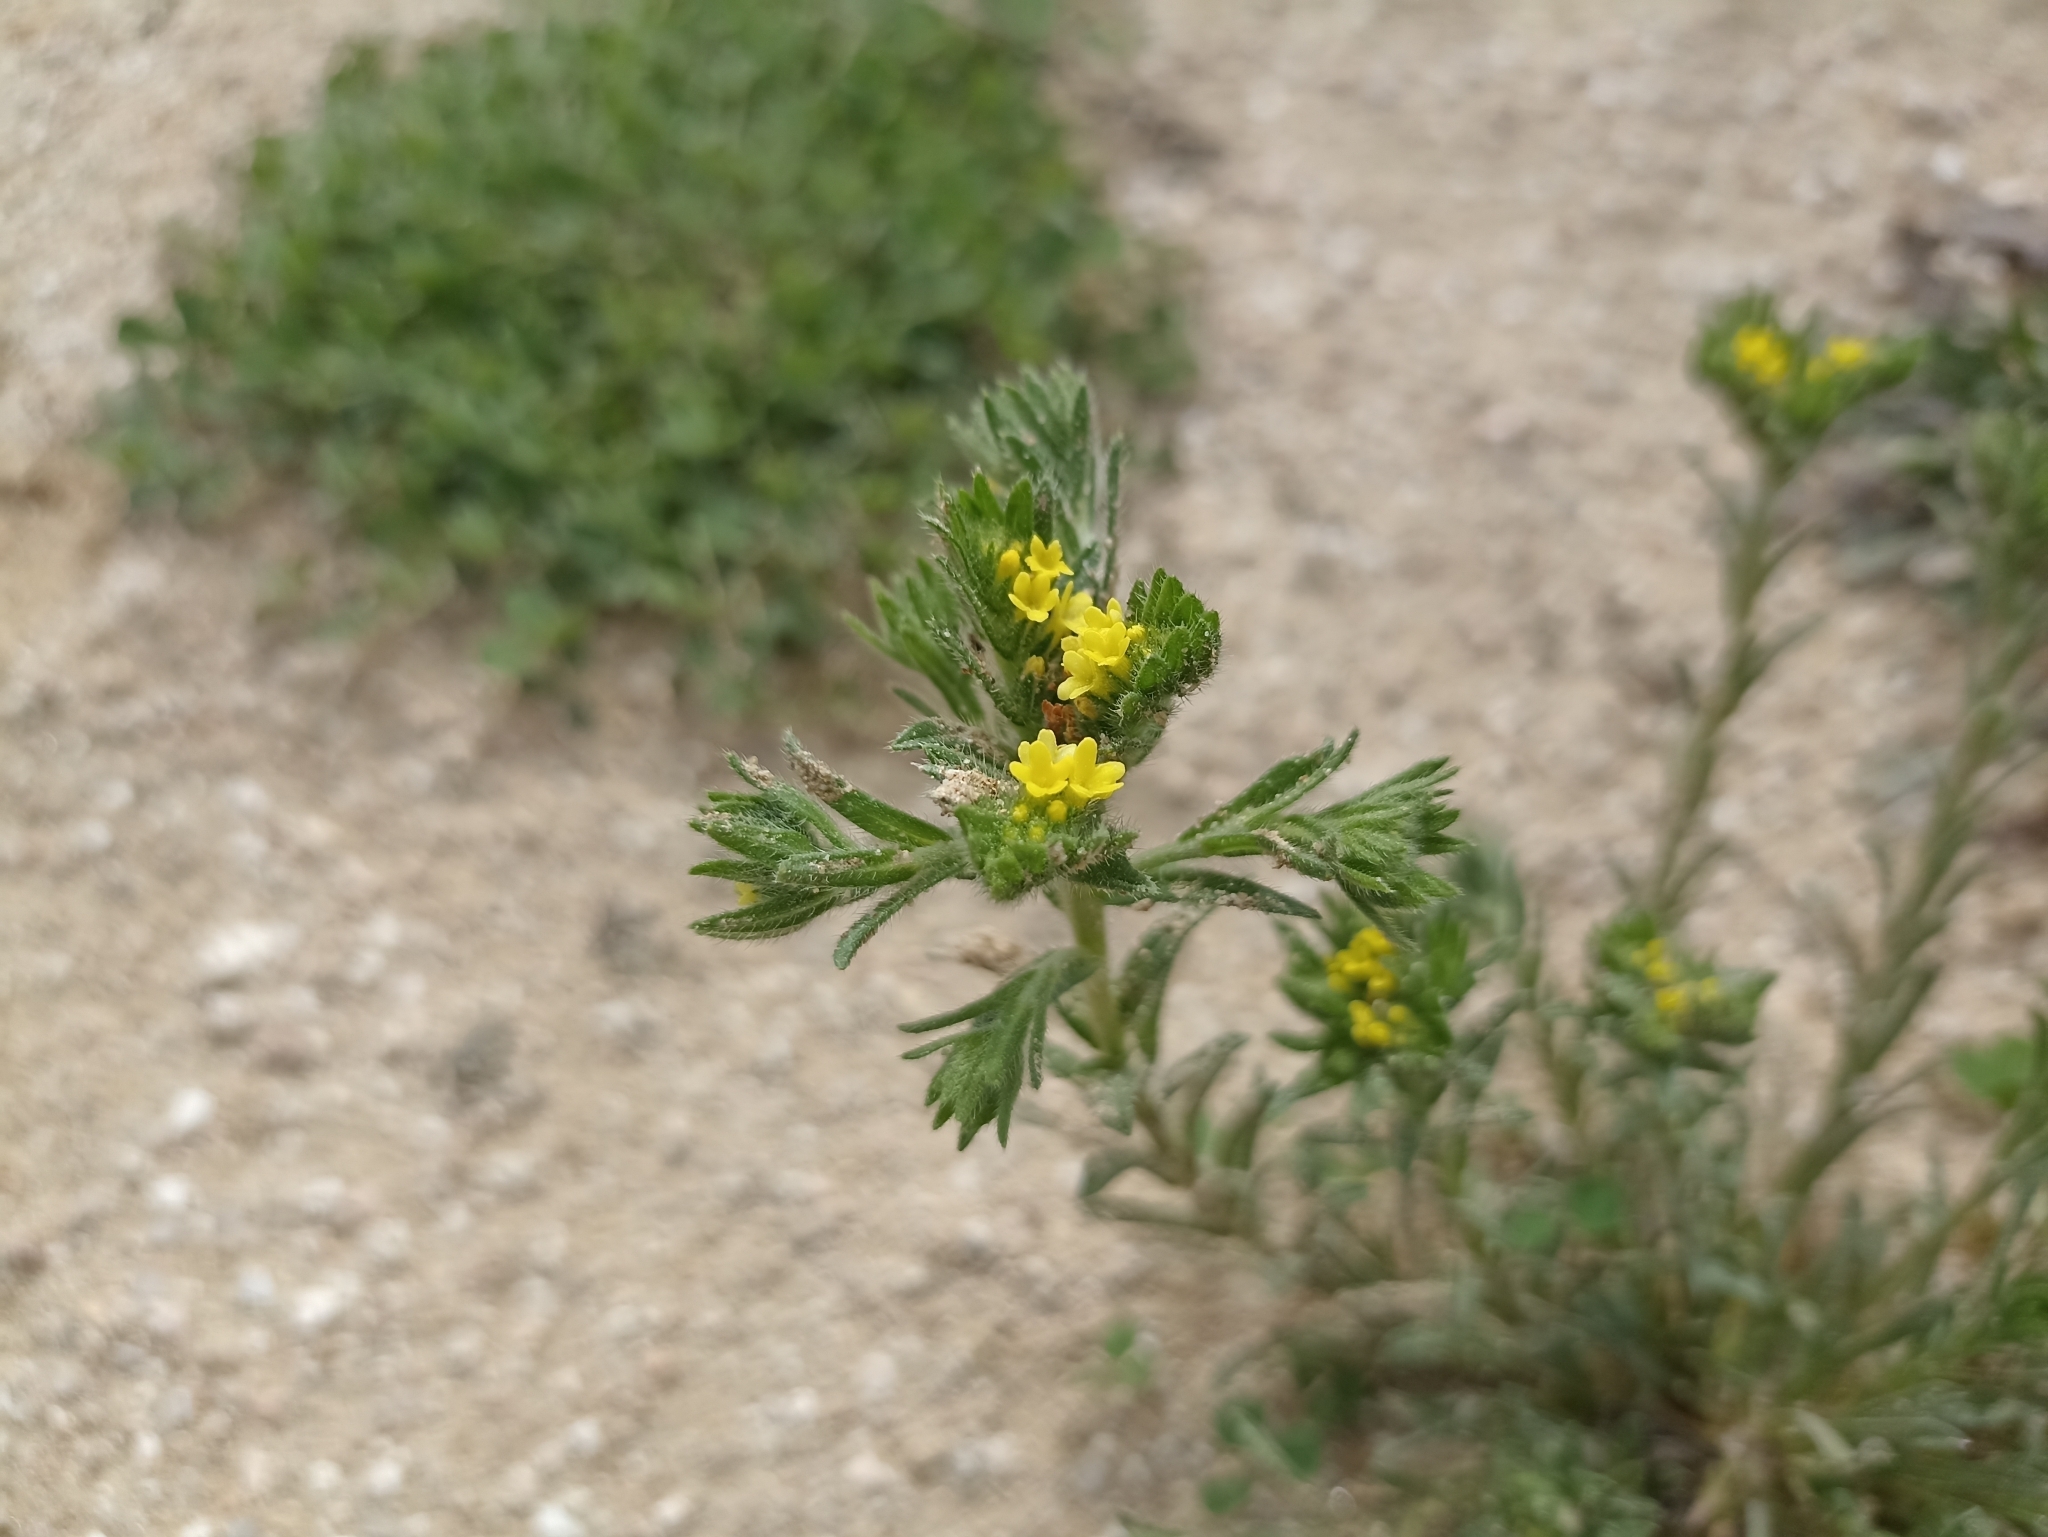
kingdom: Plantae
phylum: Tracheophyta
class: Magnoliopsida
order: Boraginales
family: Boraginaceae
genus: Neatostema
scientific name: Neatostema apulum
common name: Hairy sheepweed
